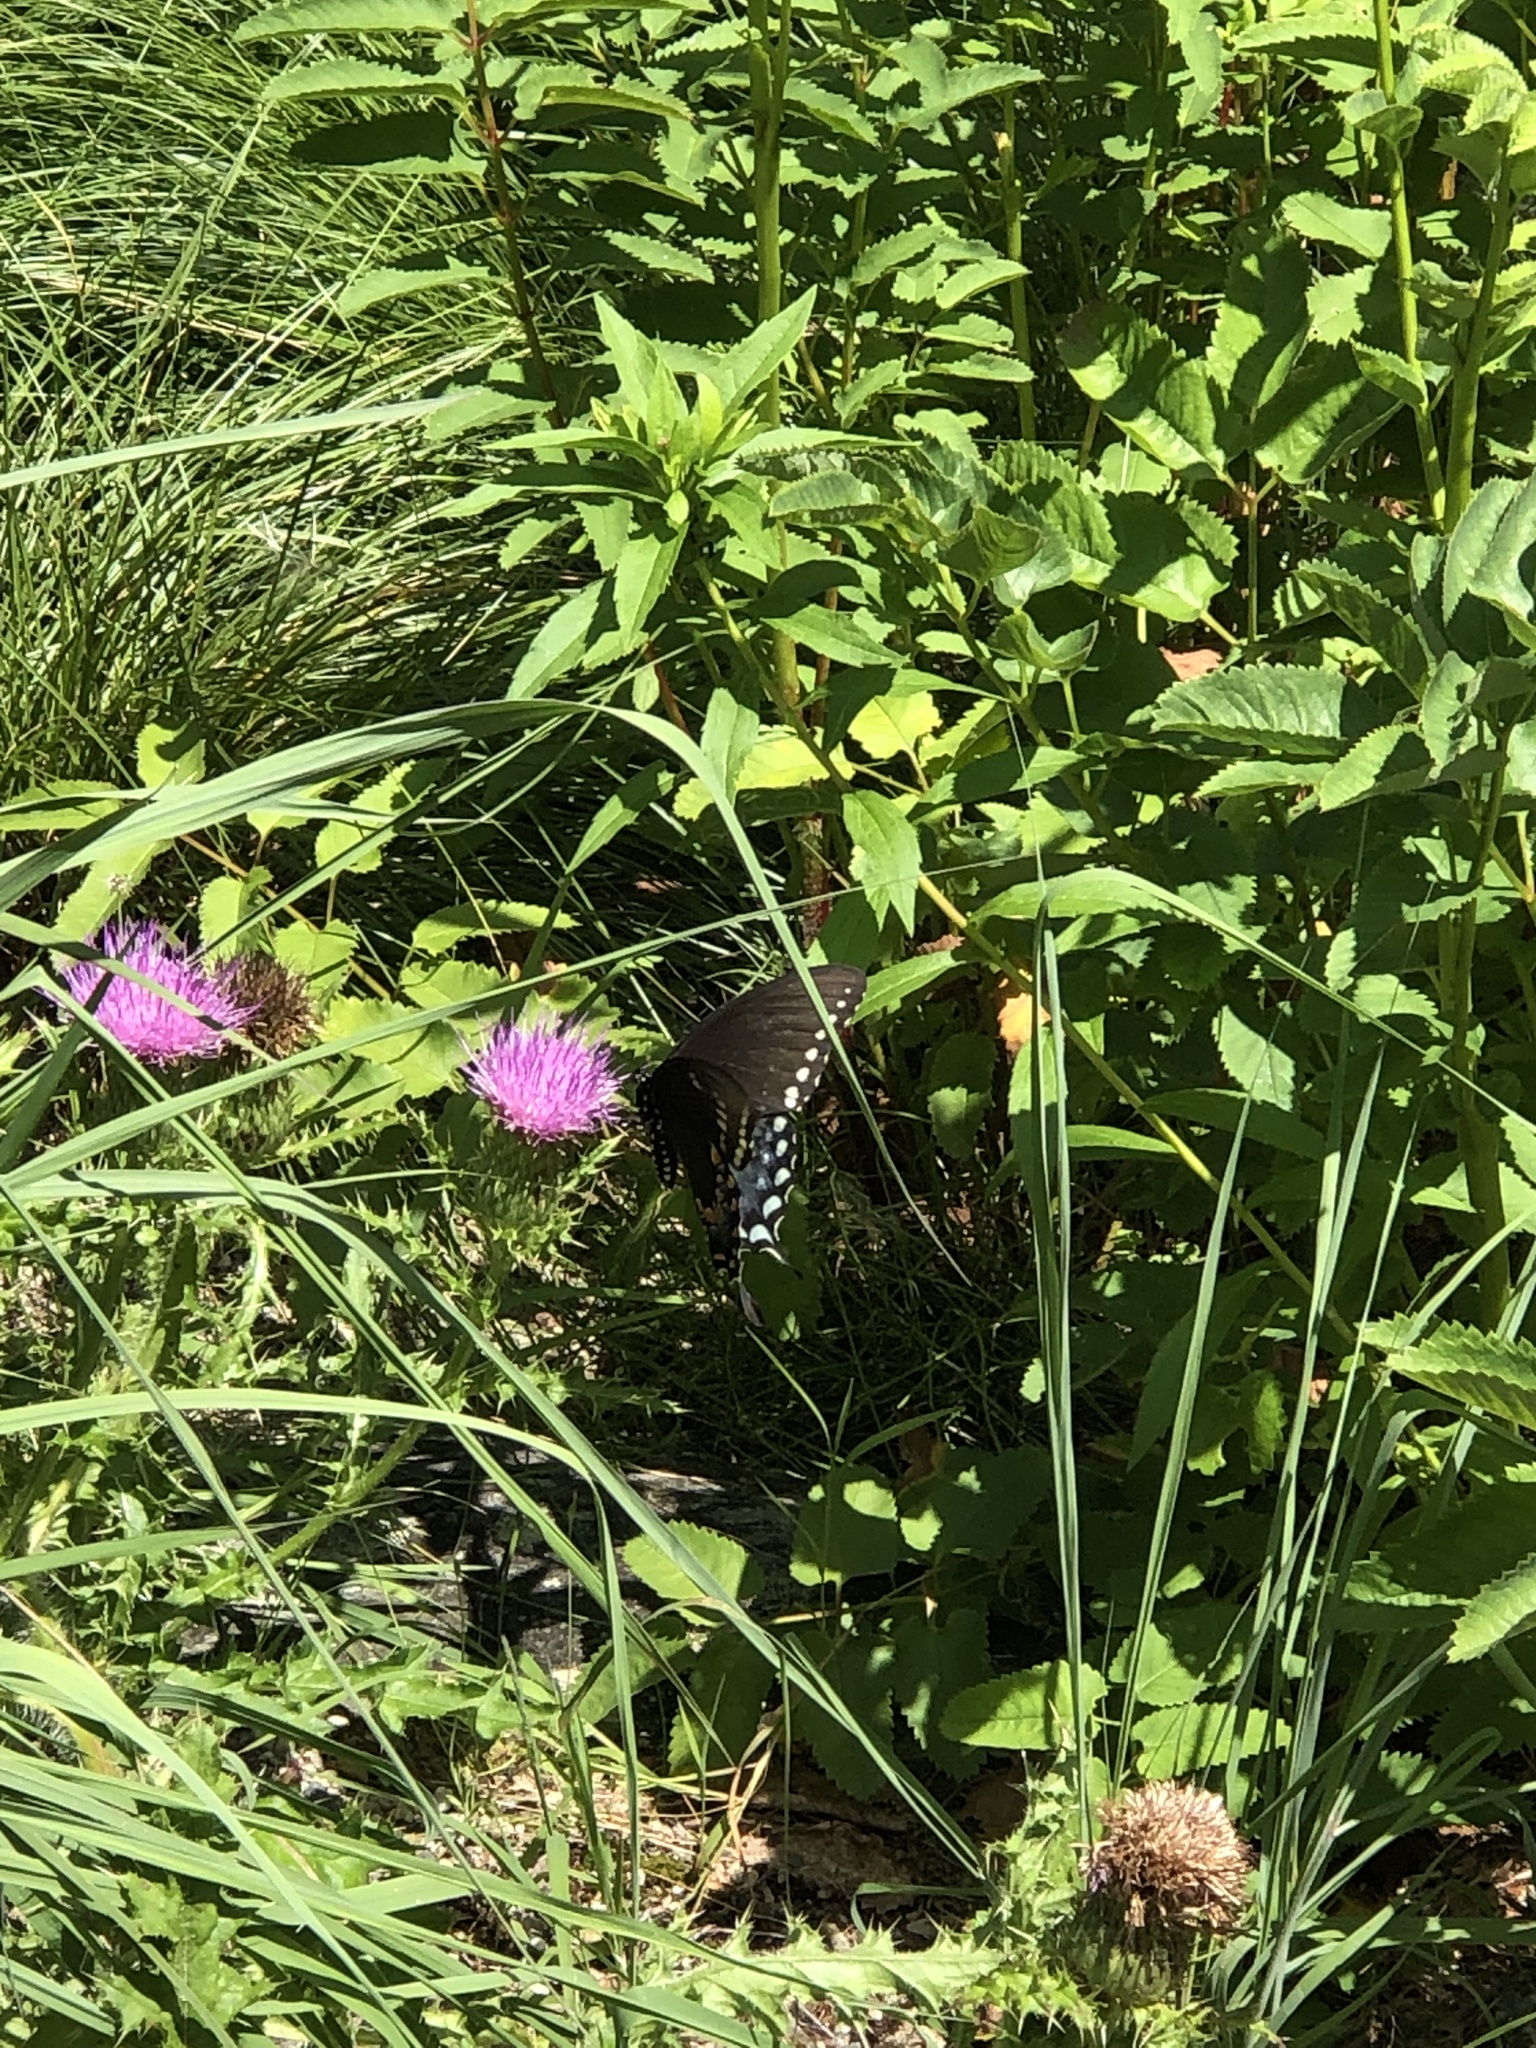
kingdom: Animalia
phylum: Arthropoda
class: Insecta
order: Lepidoptera
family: Papilionidae
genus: Papilio
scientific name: Papilio troilus
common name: Spicebush swallowtail
